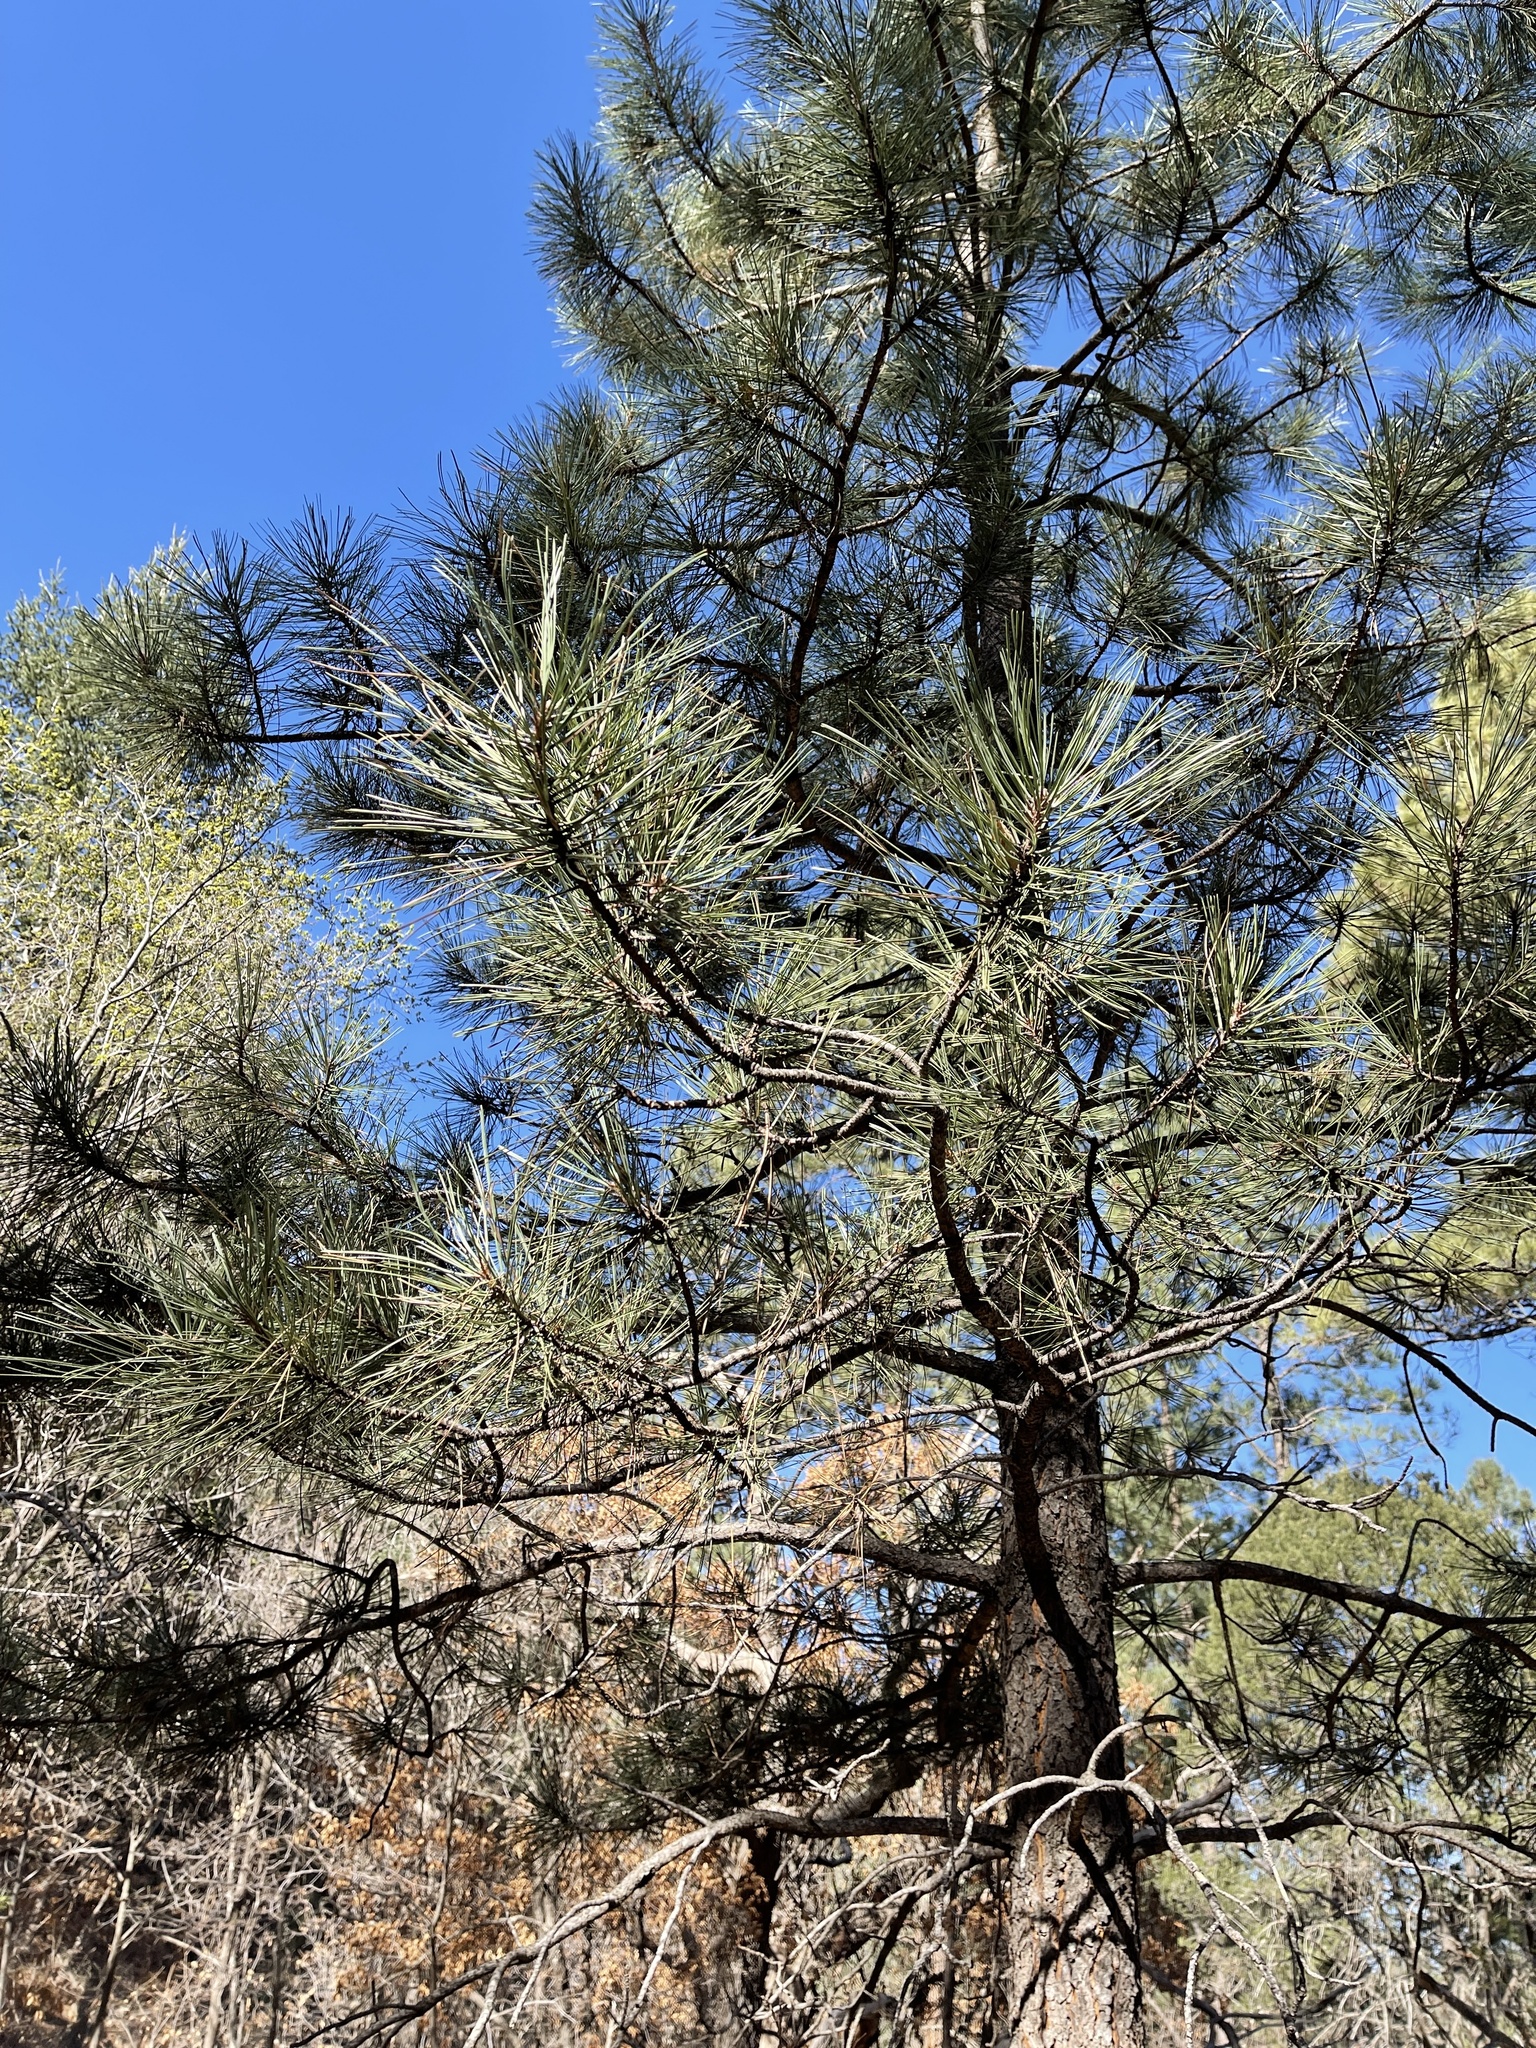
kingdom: Plantae
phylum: Tracheophyta
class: Pinopsida
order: Pinales
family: Pinaceae
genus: Pinus
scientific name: Pinus ponderosa
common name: Western yellow-pine
